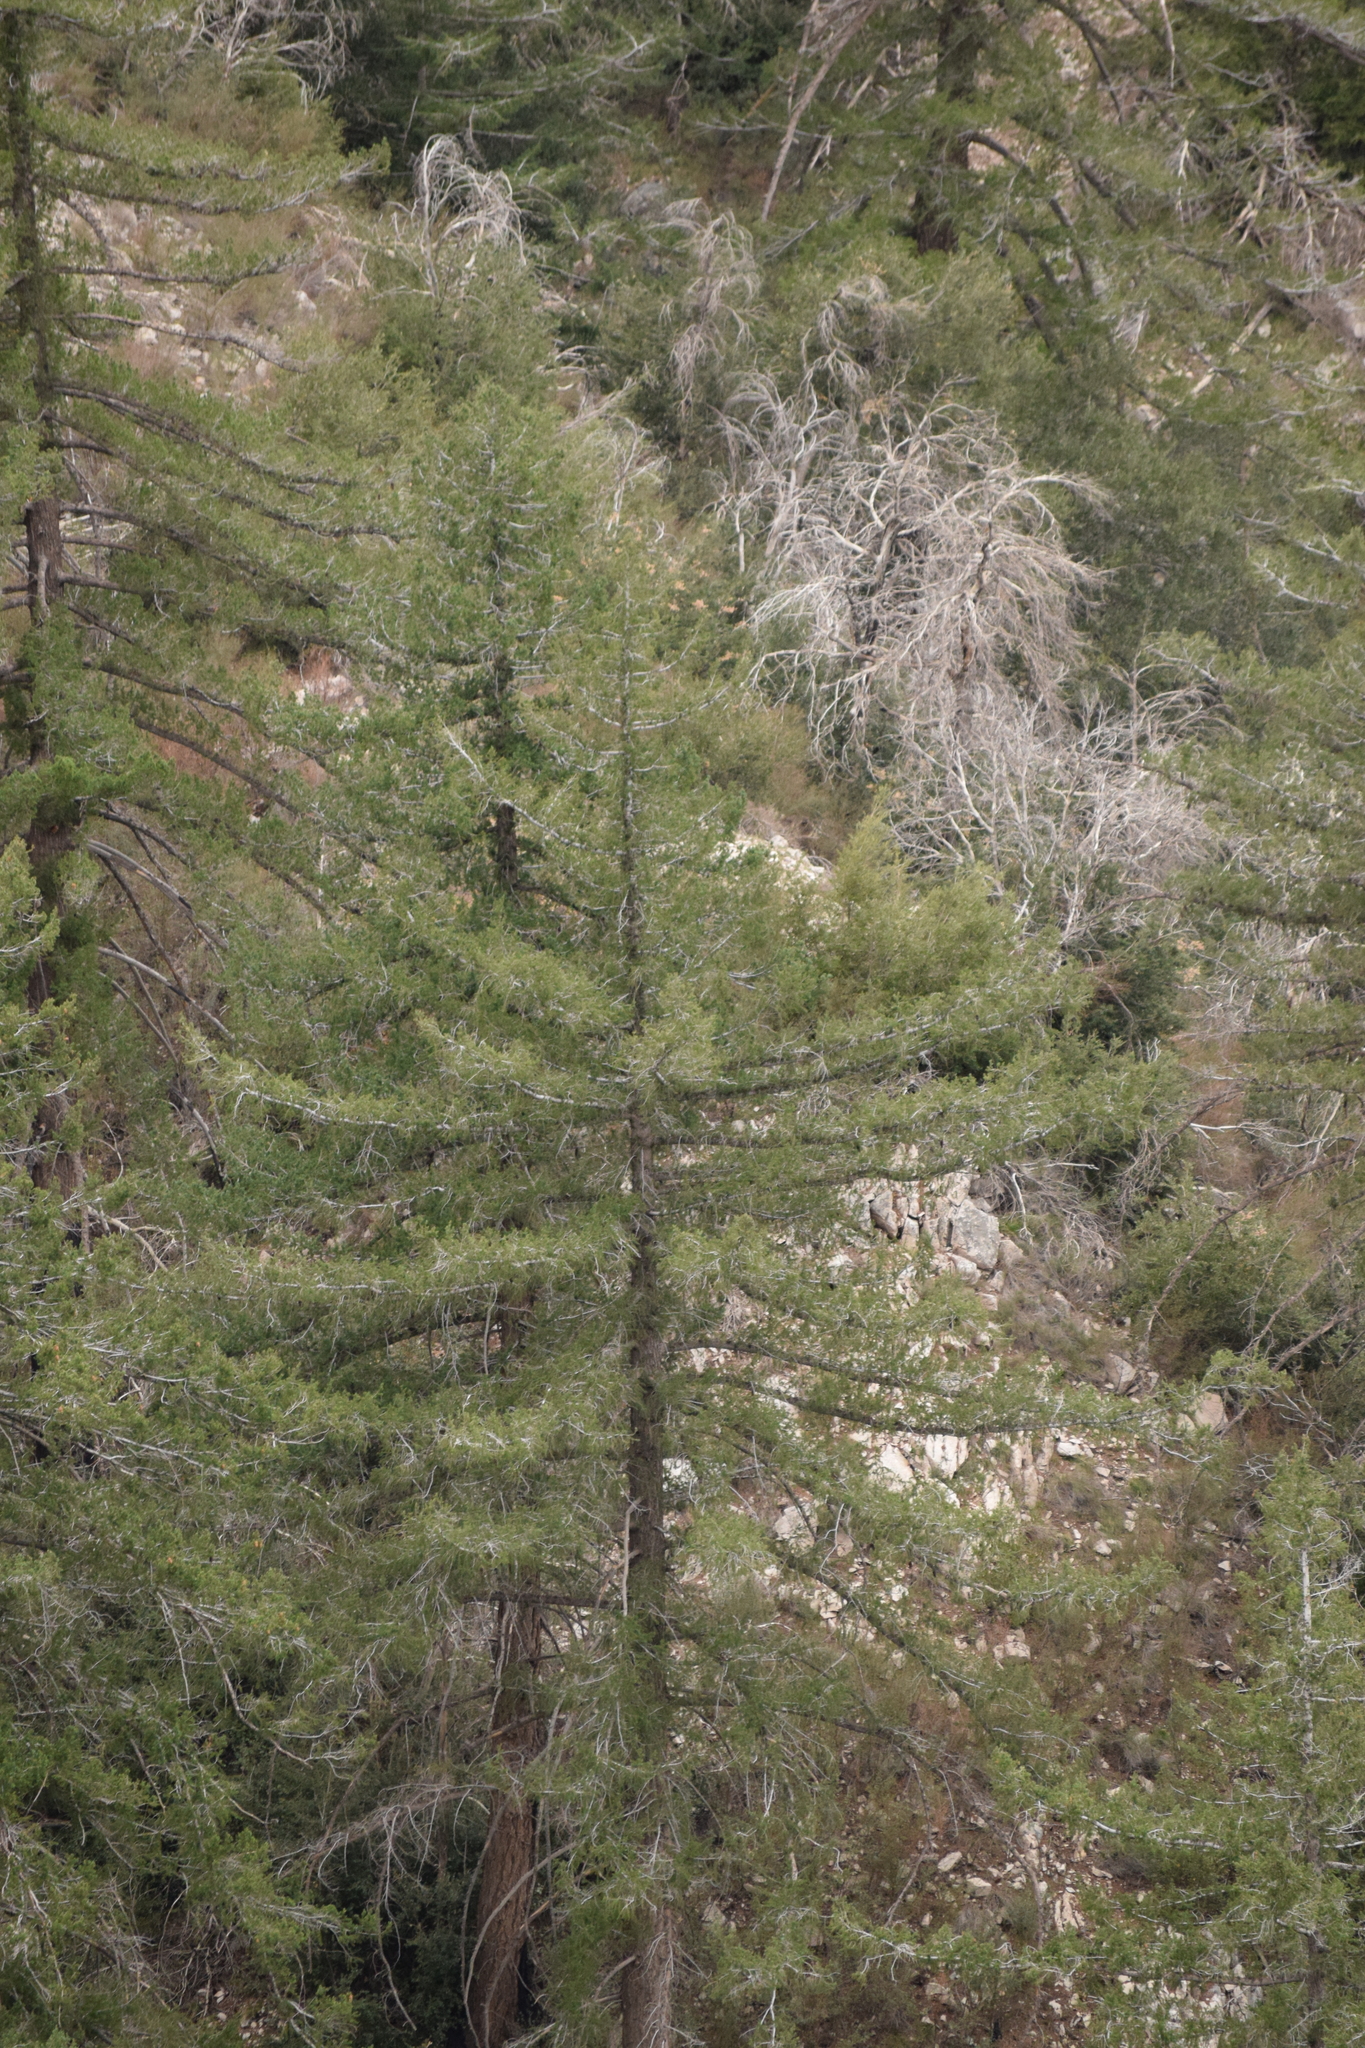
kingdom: Plantae
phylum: Tracheophyta
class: Pinopsida
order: Pinales
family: Pinaceae
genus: Pseudotsuga
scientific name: Pseudotsuga macrocarpa
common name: Big-cone douglas-fir
